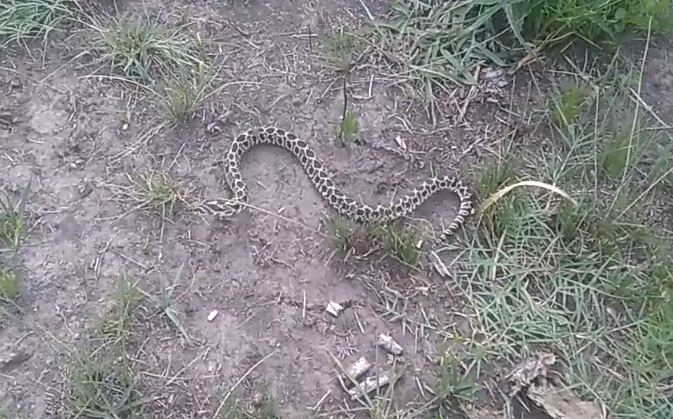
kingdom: Animalia
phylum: Chordata
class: Squamata
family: Colubridae
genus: Xenodon
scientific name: Xenodon dorbignyi
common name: South american hognose snake
